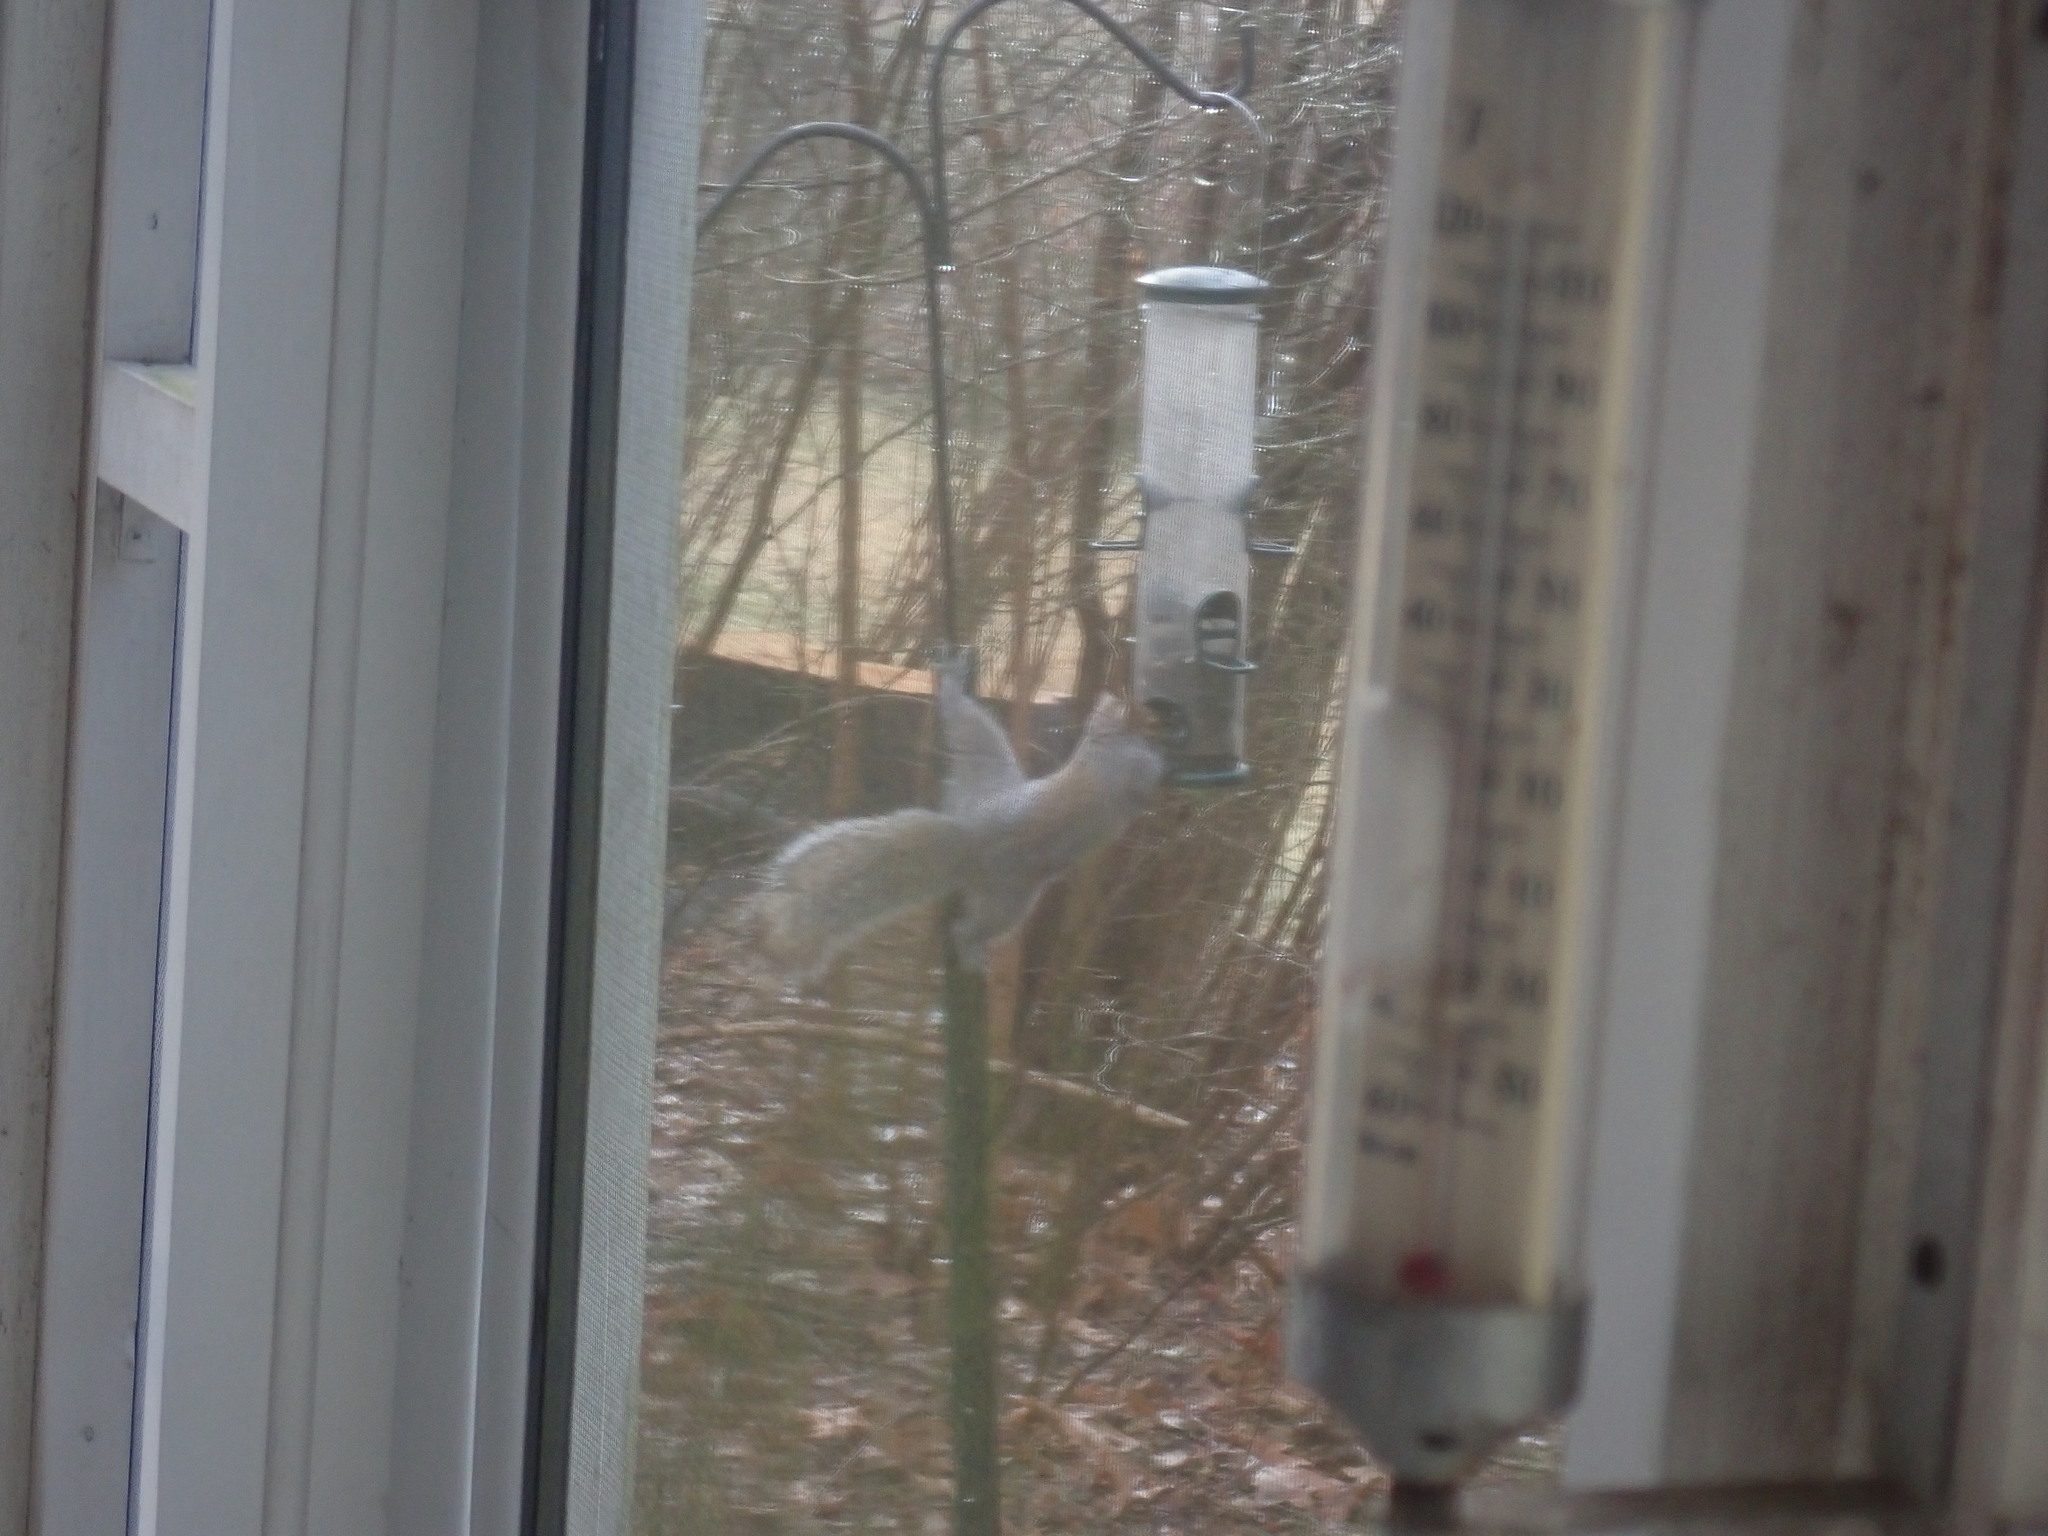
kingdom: Animalia
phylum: Chordata
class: Mammalia
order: Rodentia
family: Sciuridae
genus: Sciurus
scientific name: Sciurus carolinensis
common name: Eastern gray squirrel
